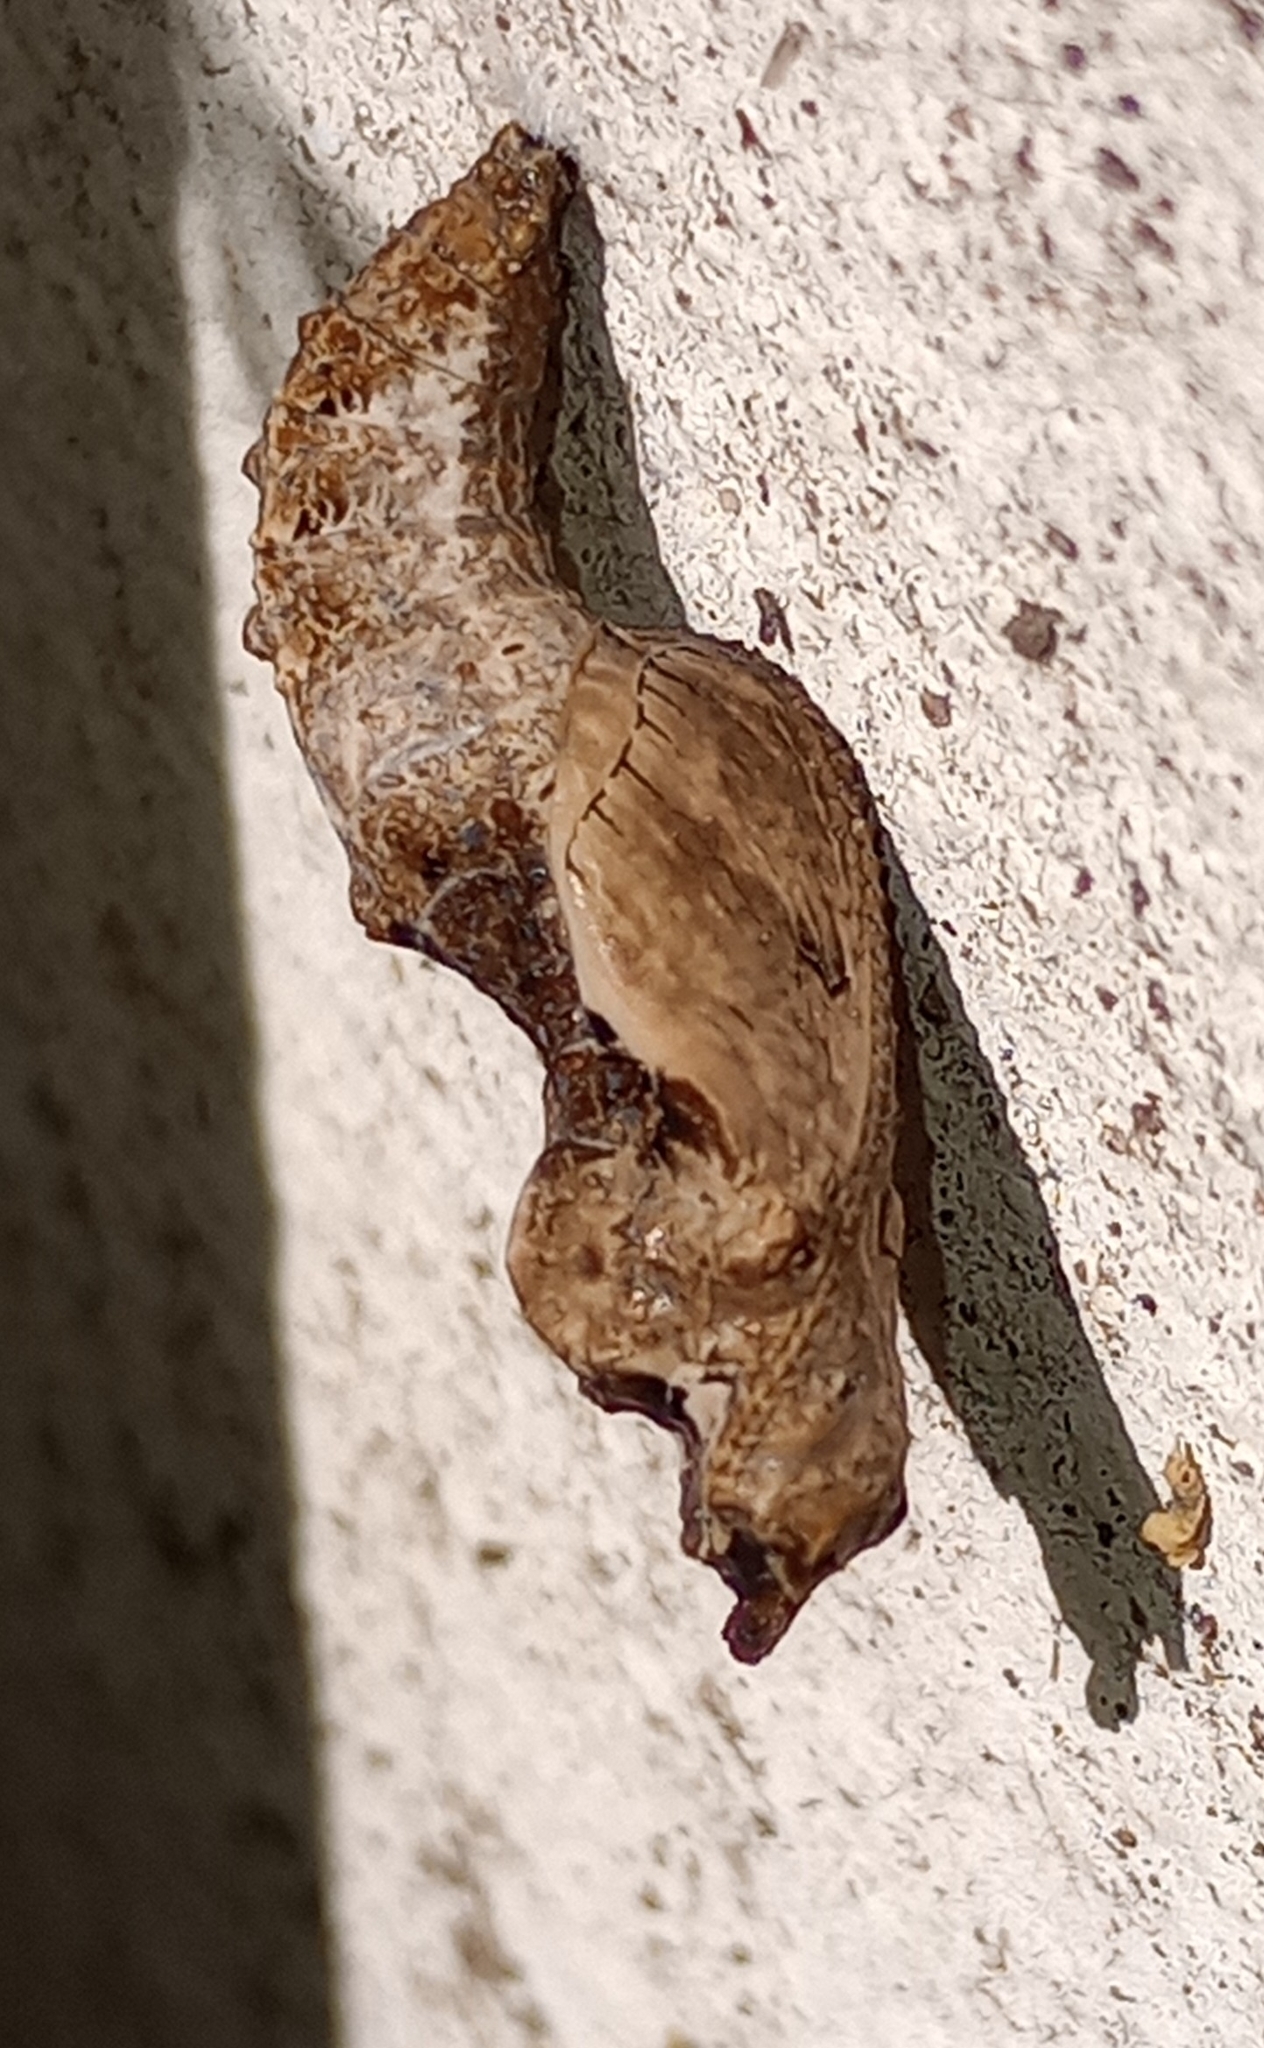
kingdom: Animalia
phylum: Arthropoda
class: Insecta
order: Lepidoptera
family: Nymphalidae
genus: Dione
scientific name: Dione vanillae
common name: Gulf fritillary
